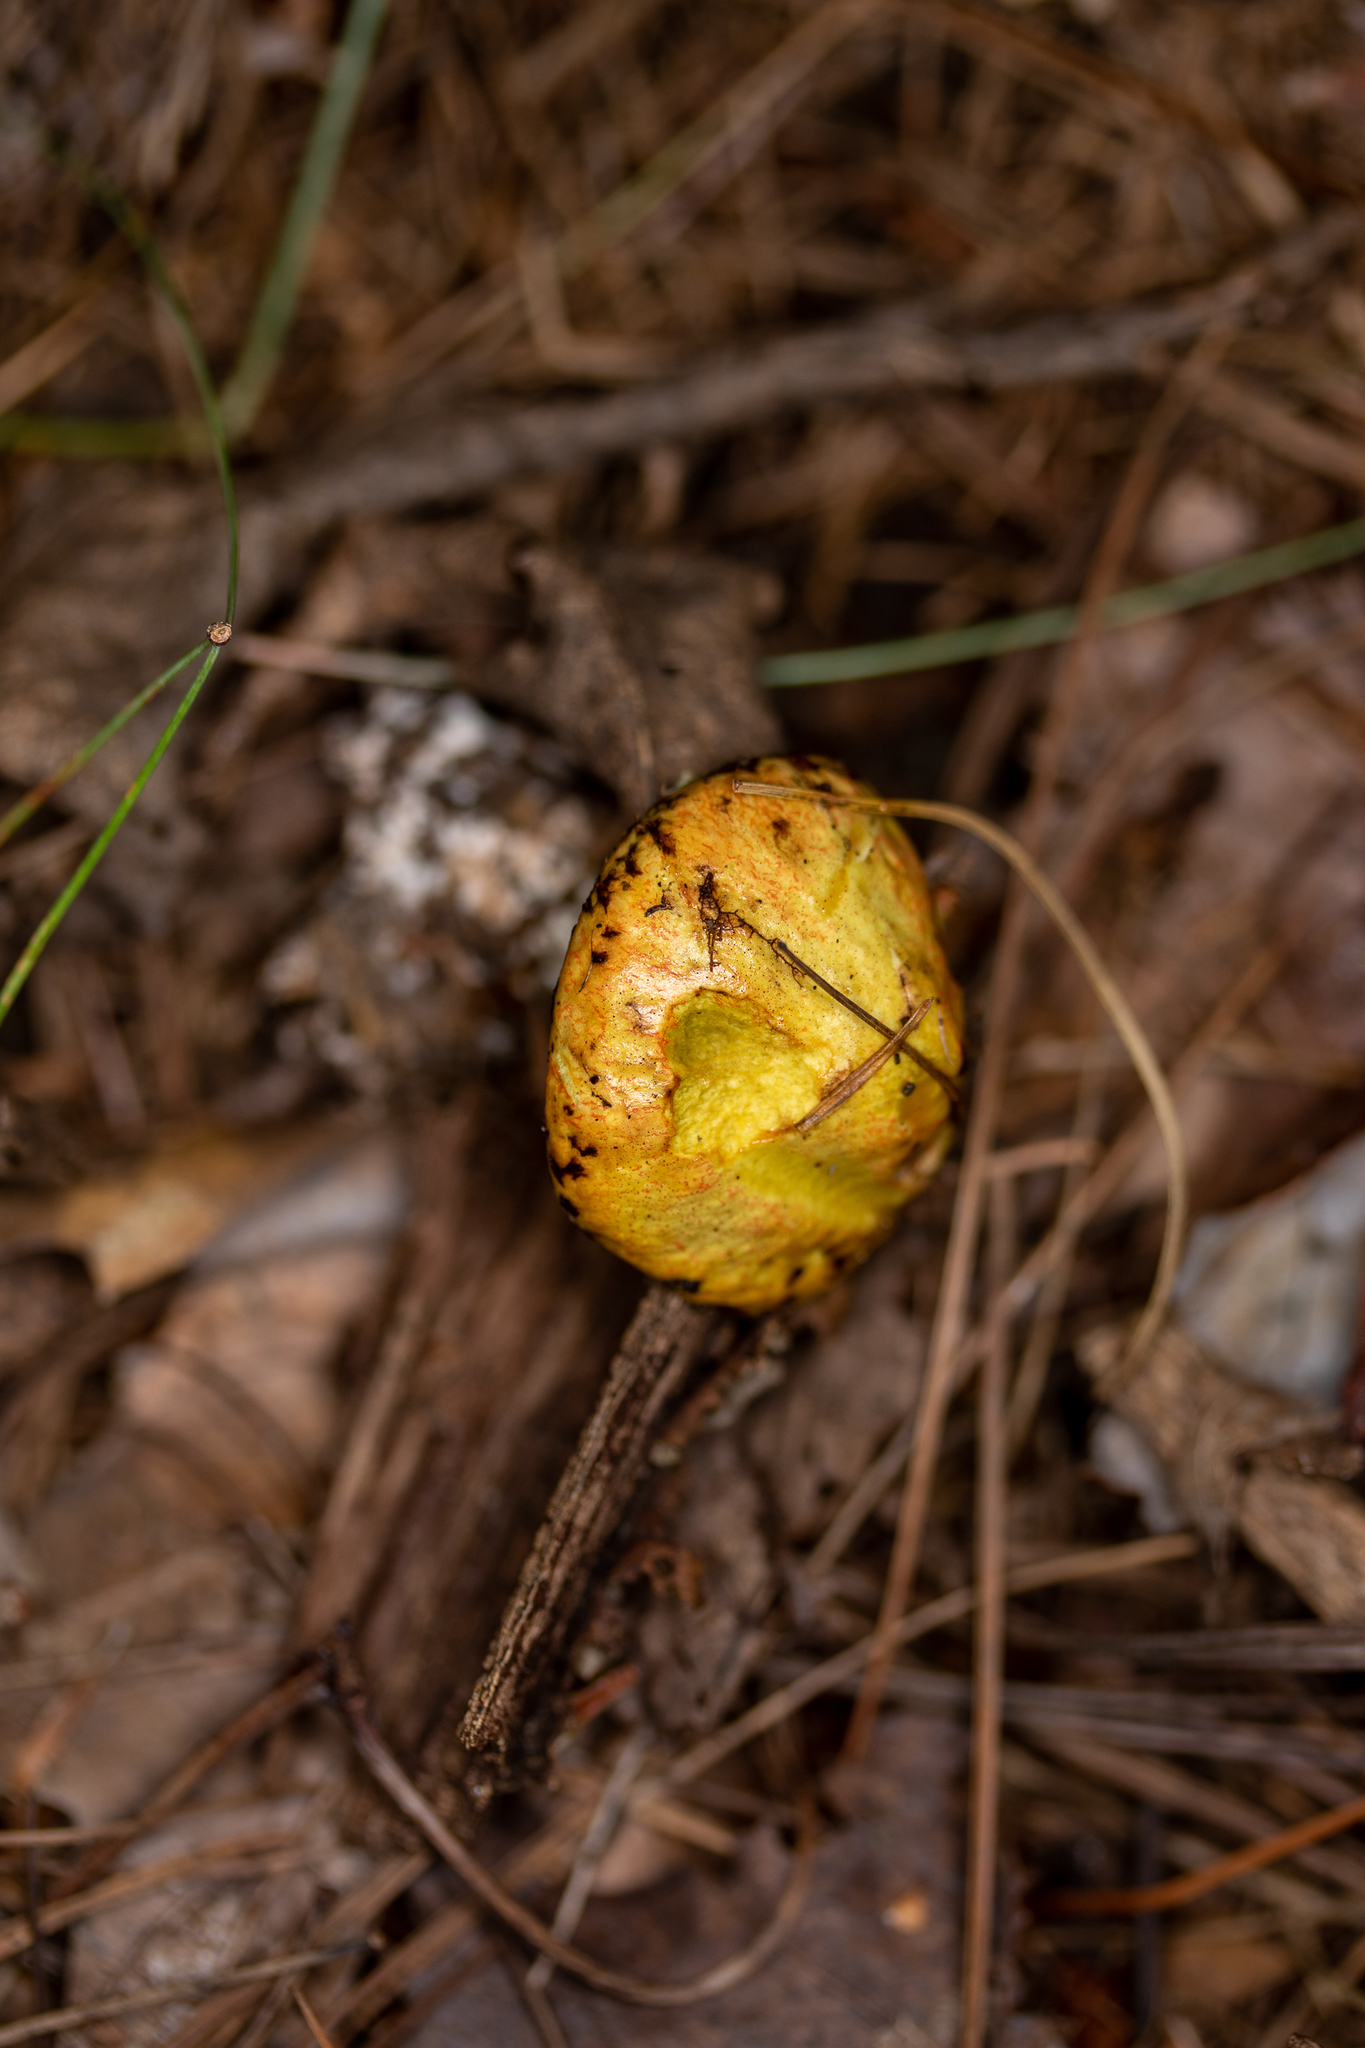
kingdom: Fungi
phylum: Basidiomycota
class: Agaricomycetes
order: Boletales
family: Suillaceae
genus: Suillus
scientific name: Suillus americanus
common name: Chicken fat mushroom
